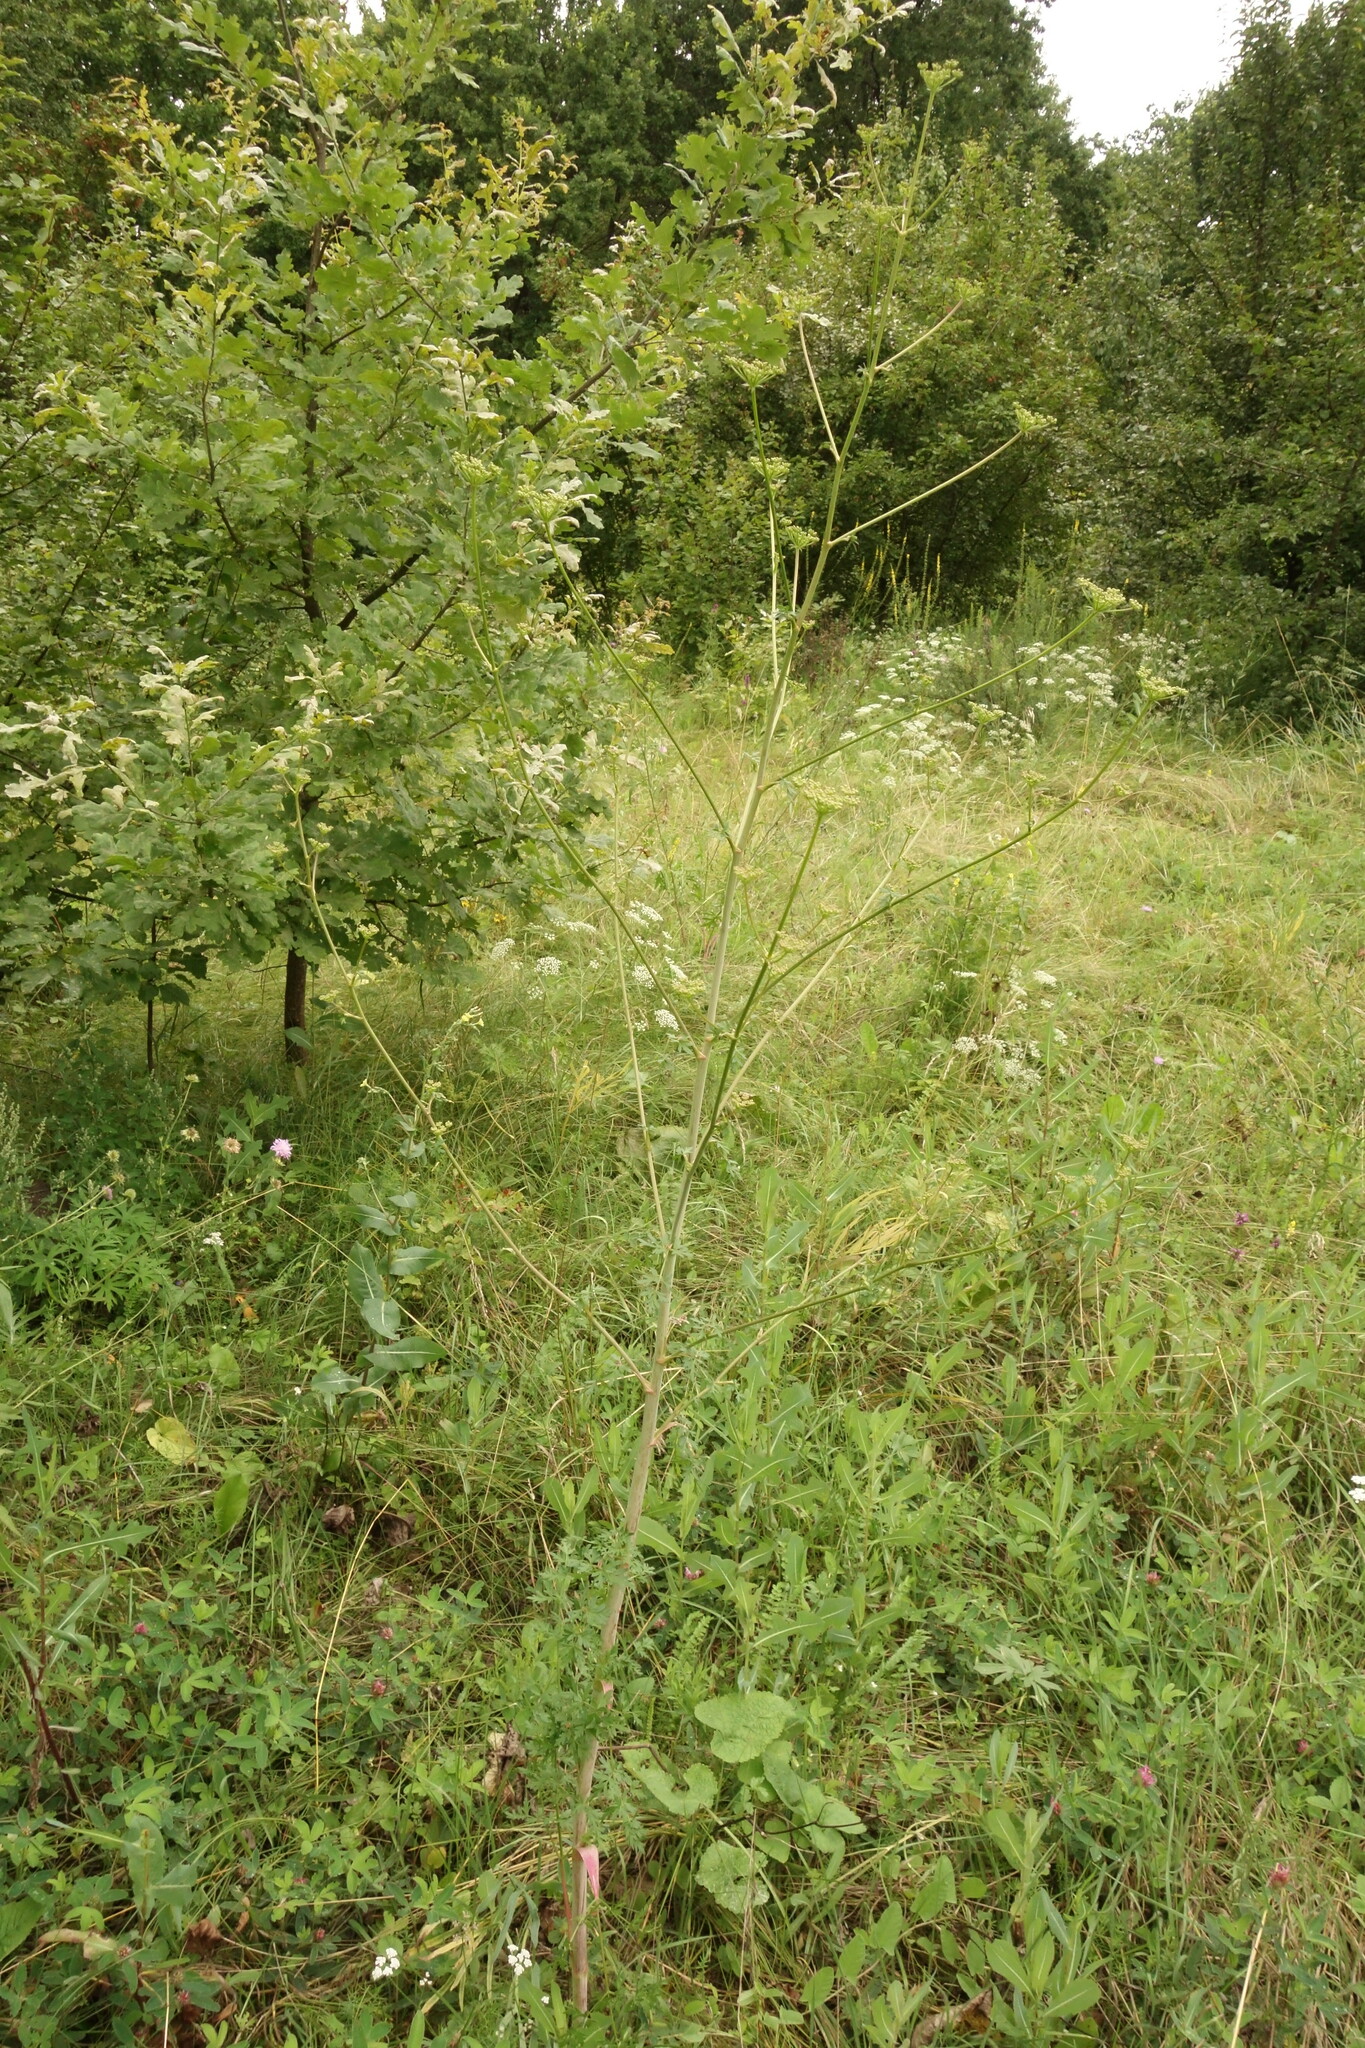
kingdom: Plantae
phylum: Tracheophyta
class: Magnoliopsida
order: Apiales
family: Apiaceae
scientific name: Apiaceae
